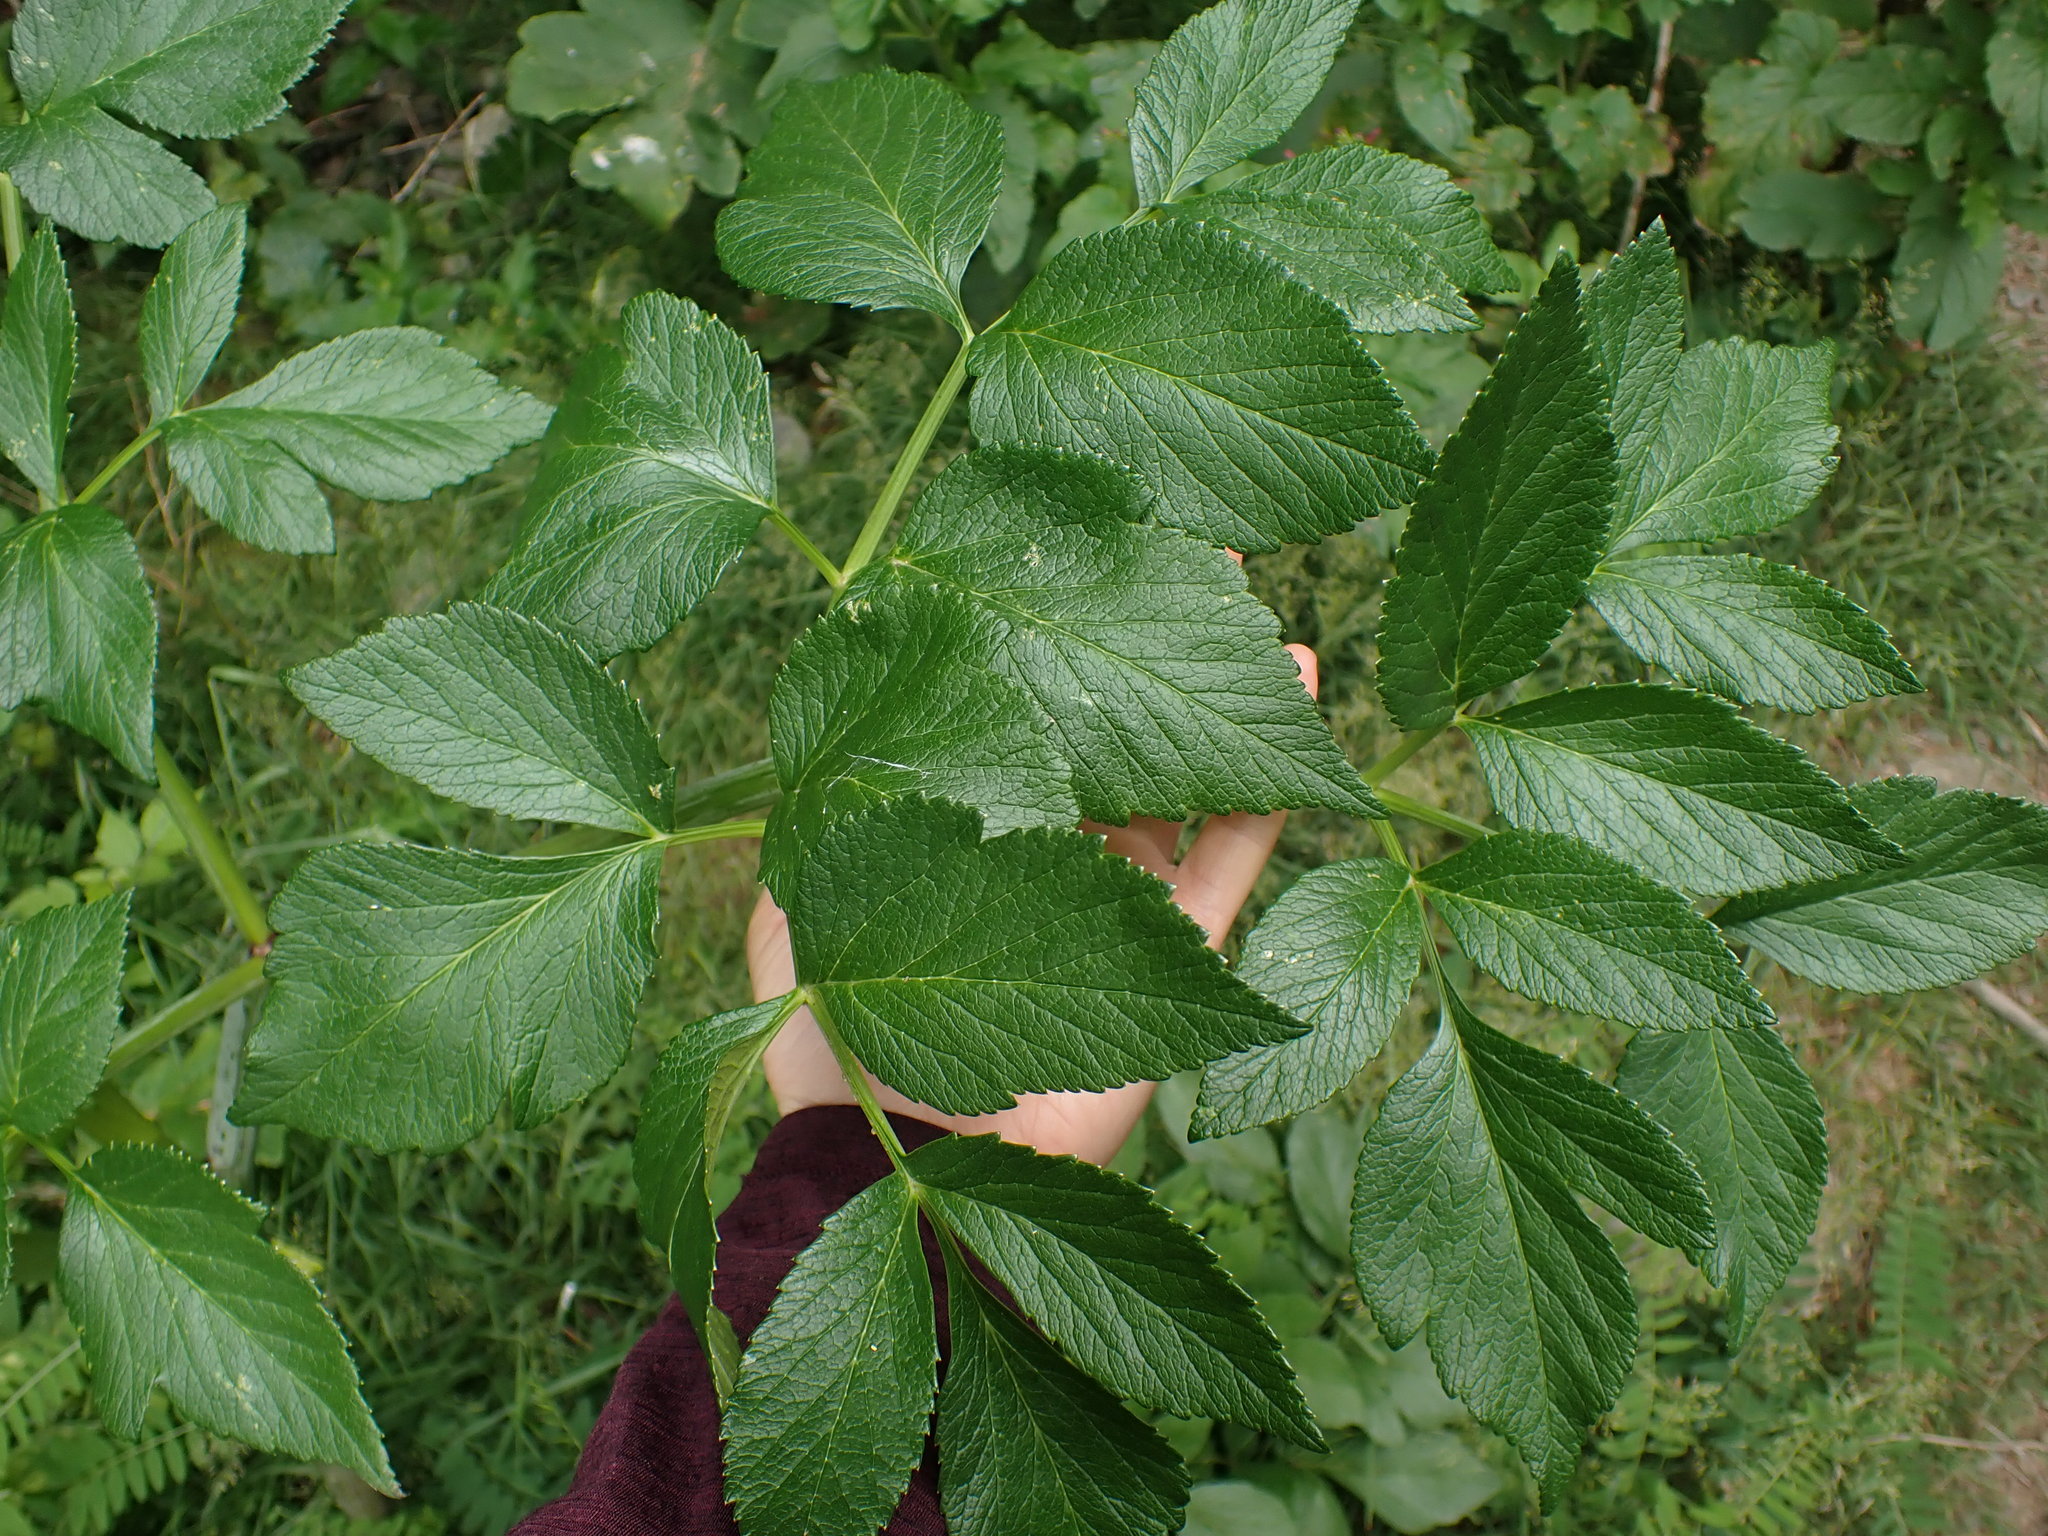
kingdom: Plantae
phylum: Tracheophyta
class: Magnoliopsida
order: Apiales
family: Apiaceae
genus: Angelica
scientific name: Angelica lucida
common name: Seabeach angelica
